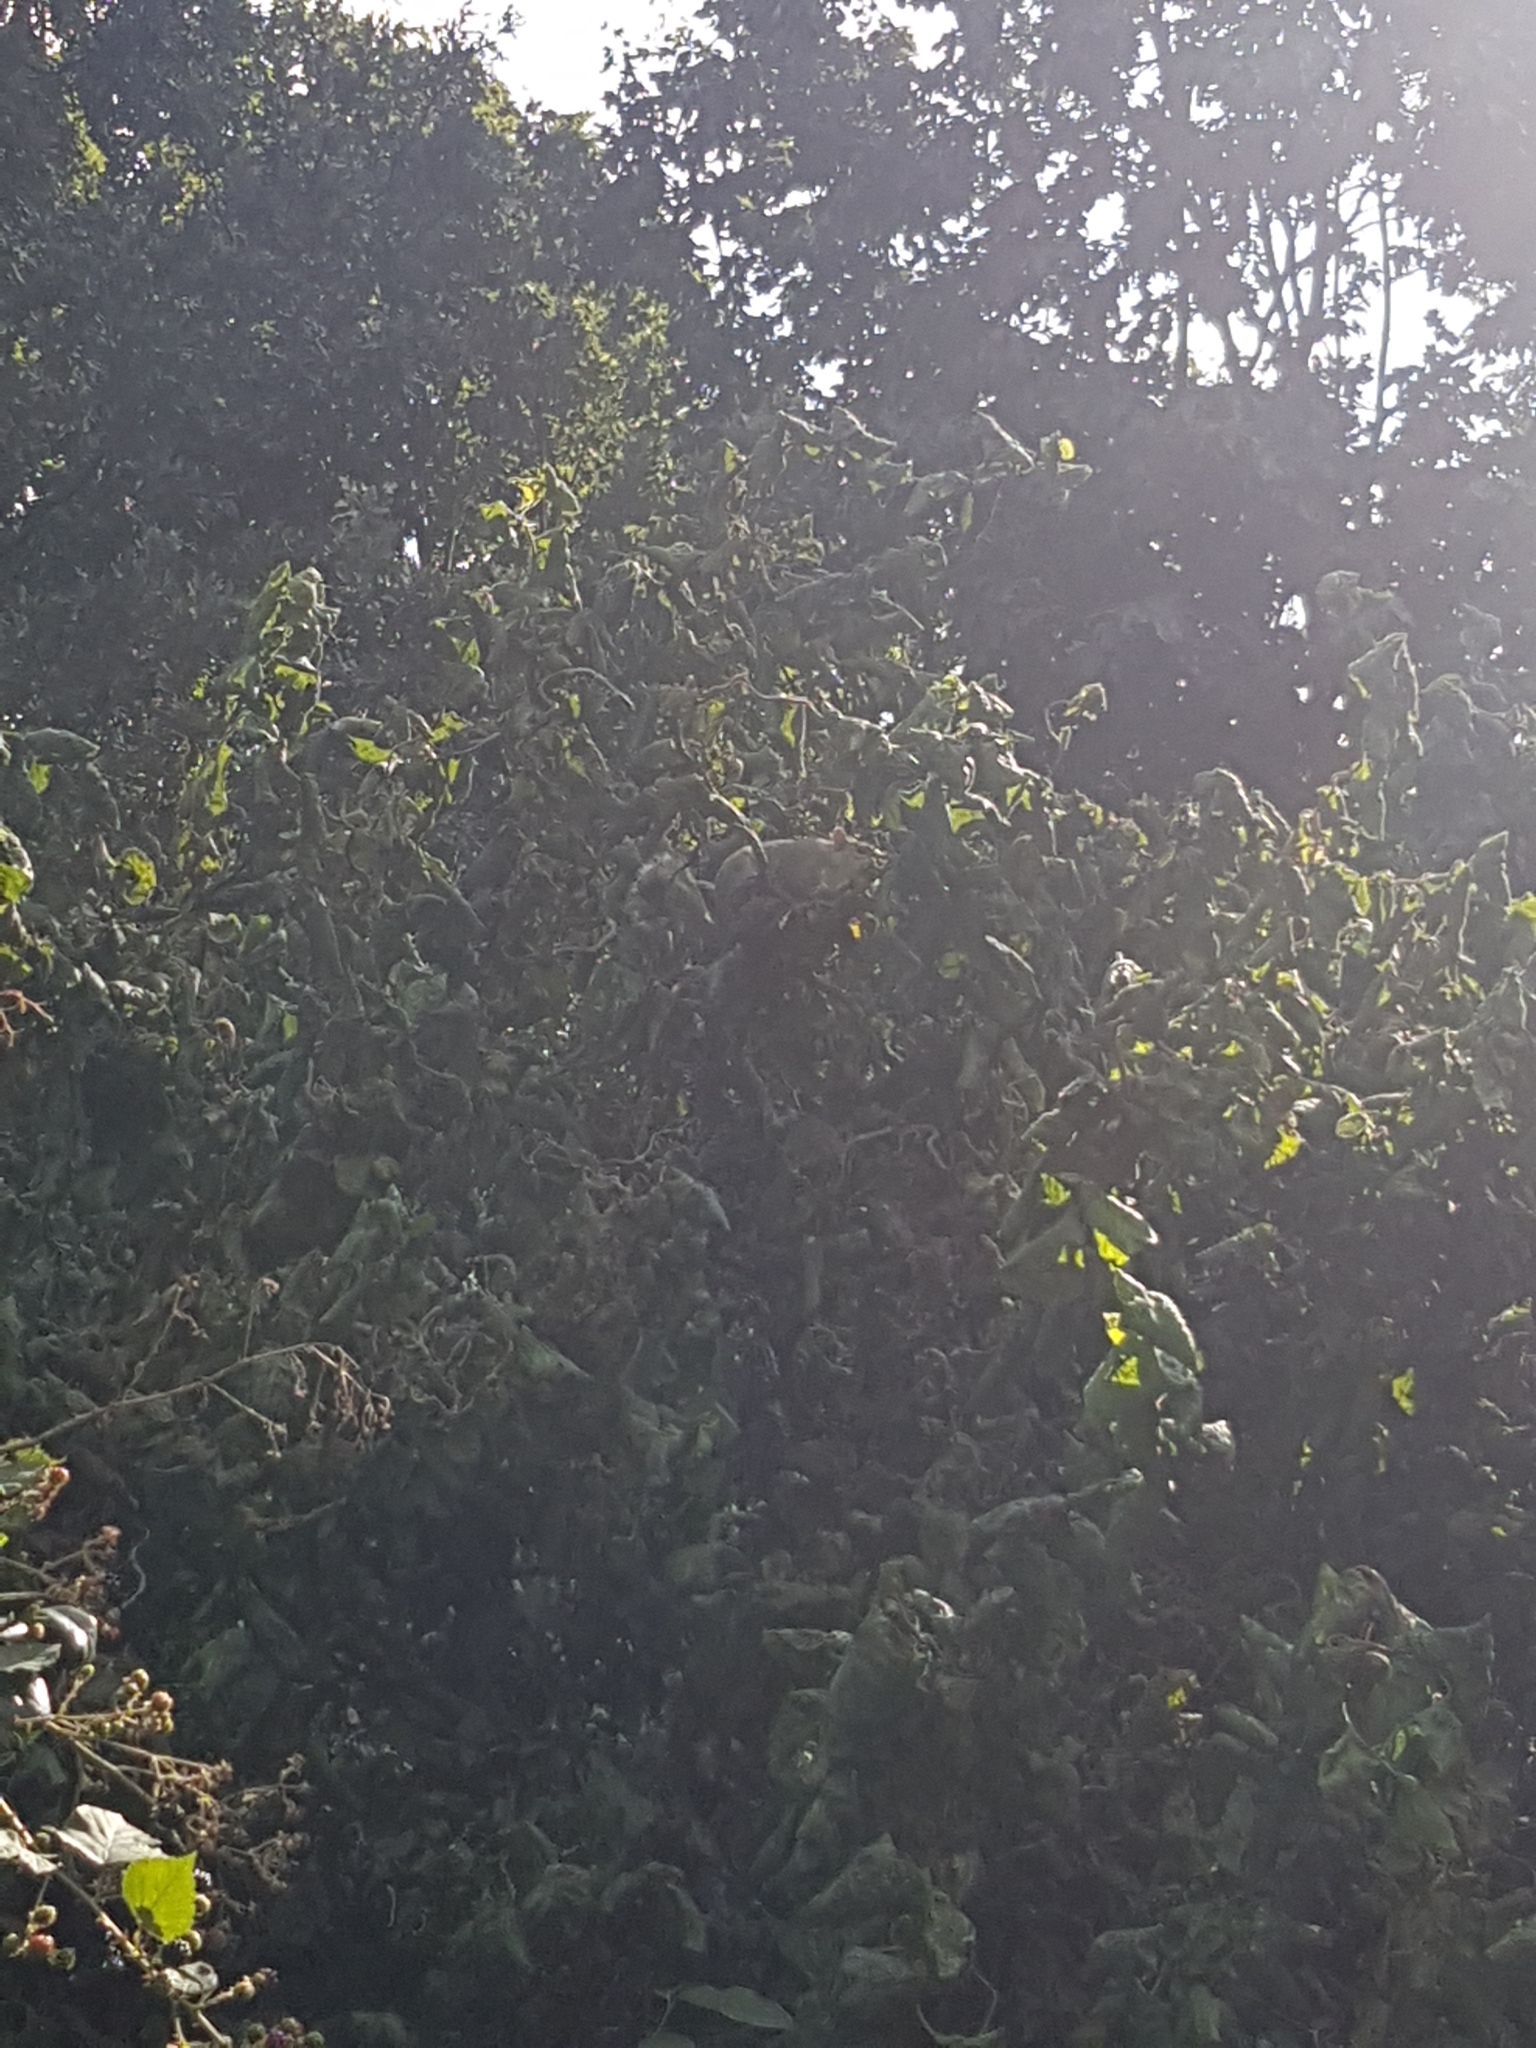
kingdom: Animalia
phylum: Chordata
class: Mammalia
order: Rodentia
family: Sciuridae
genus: Sciurus
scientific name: Sciurus carolinensis
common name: Eastern gray squirrel
